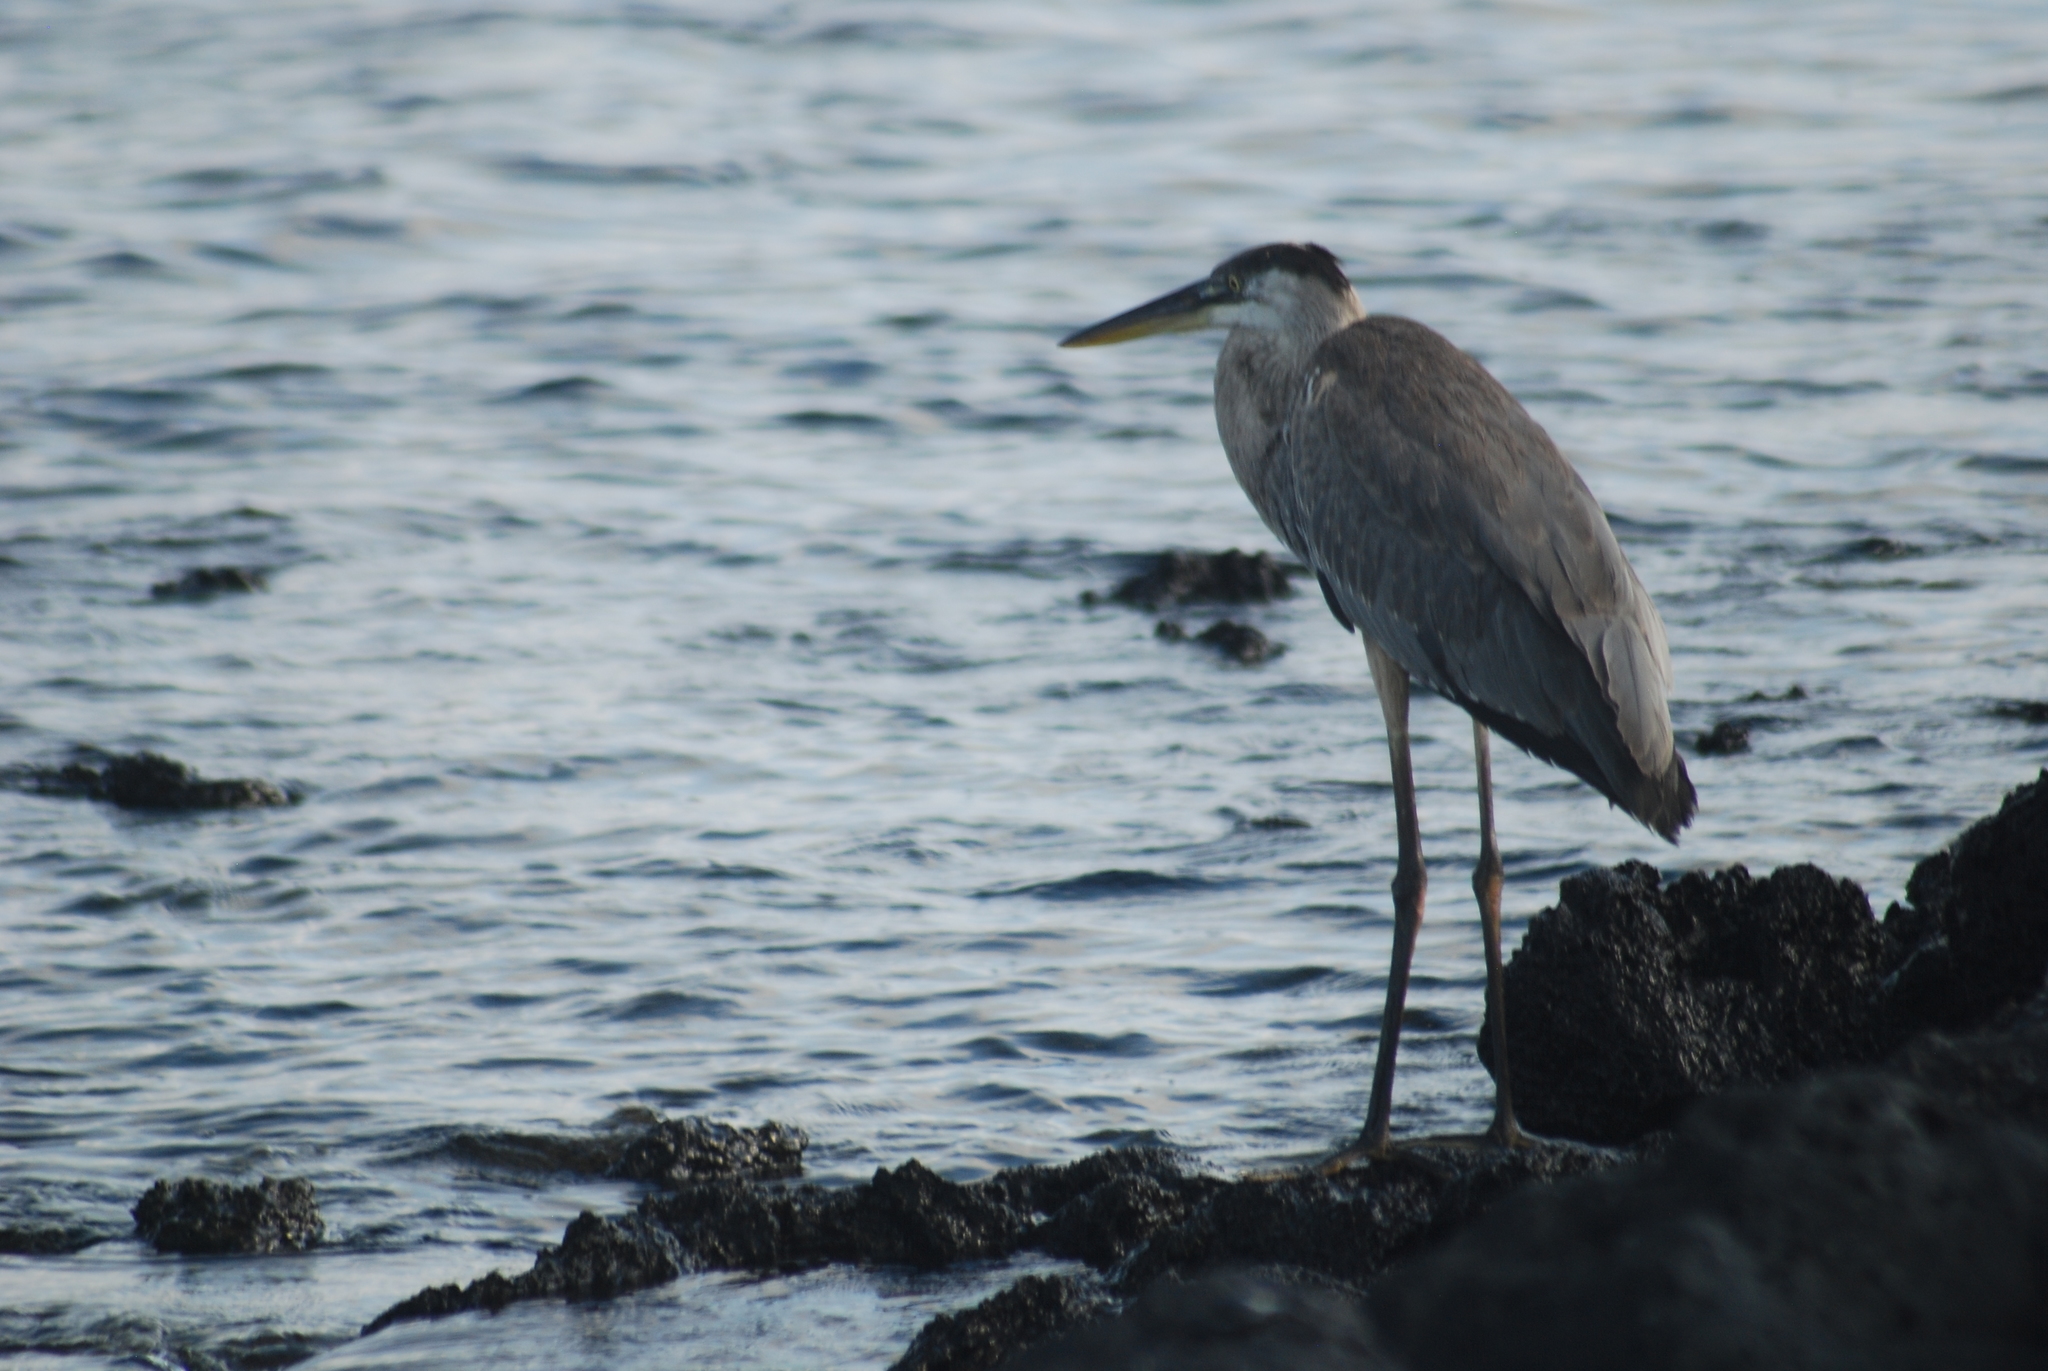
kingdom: Animalia
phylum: Chordata
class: Aves
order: Pelecaniformes
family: Ardeidae
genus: Ardea
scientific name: Ardea herodias
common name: Great blue heron
